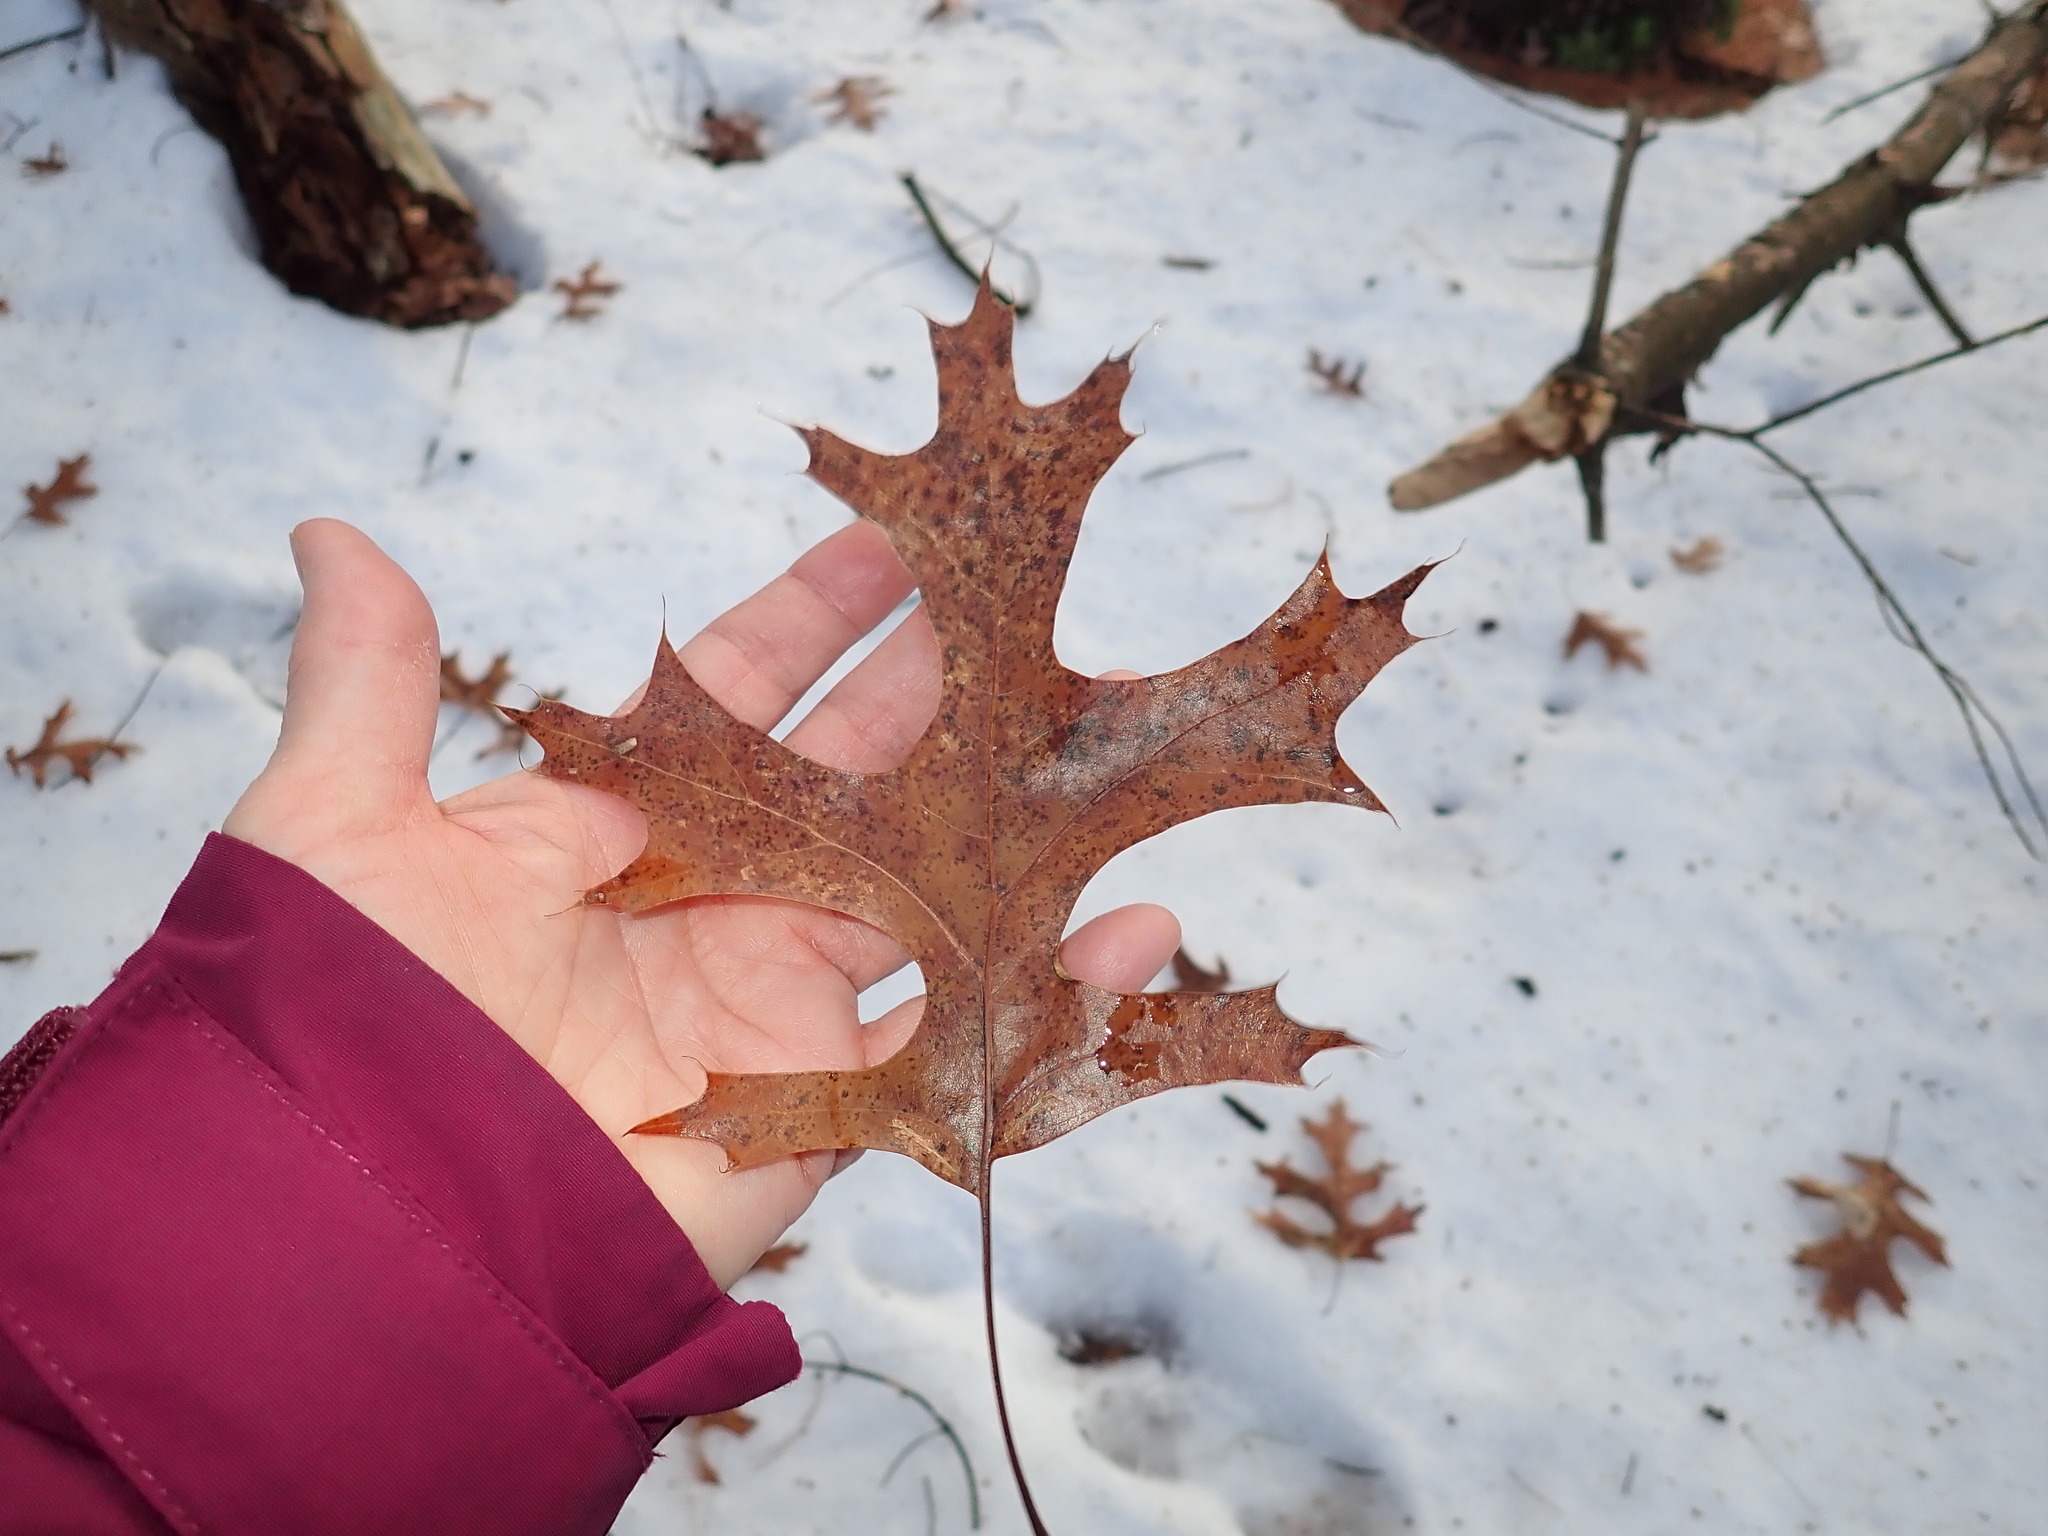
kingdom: Plantae
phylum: Tracheophyta
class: Magnoliopsida
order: Fagales
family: Fagaceae
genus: Quercus
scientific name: Quercus coccinea
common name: Scarlet oak
